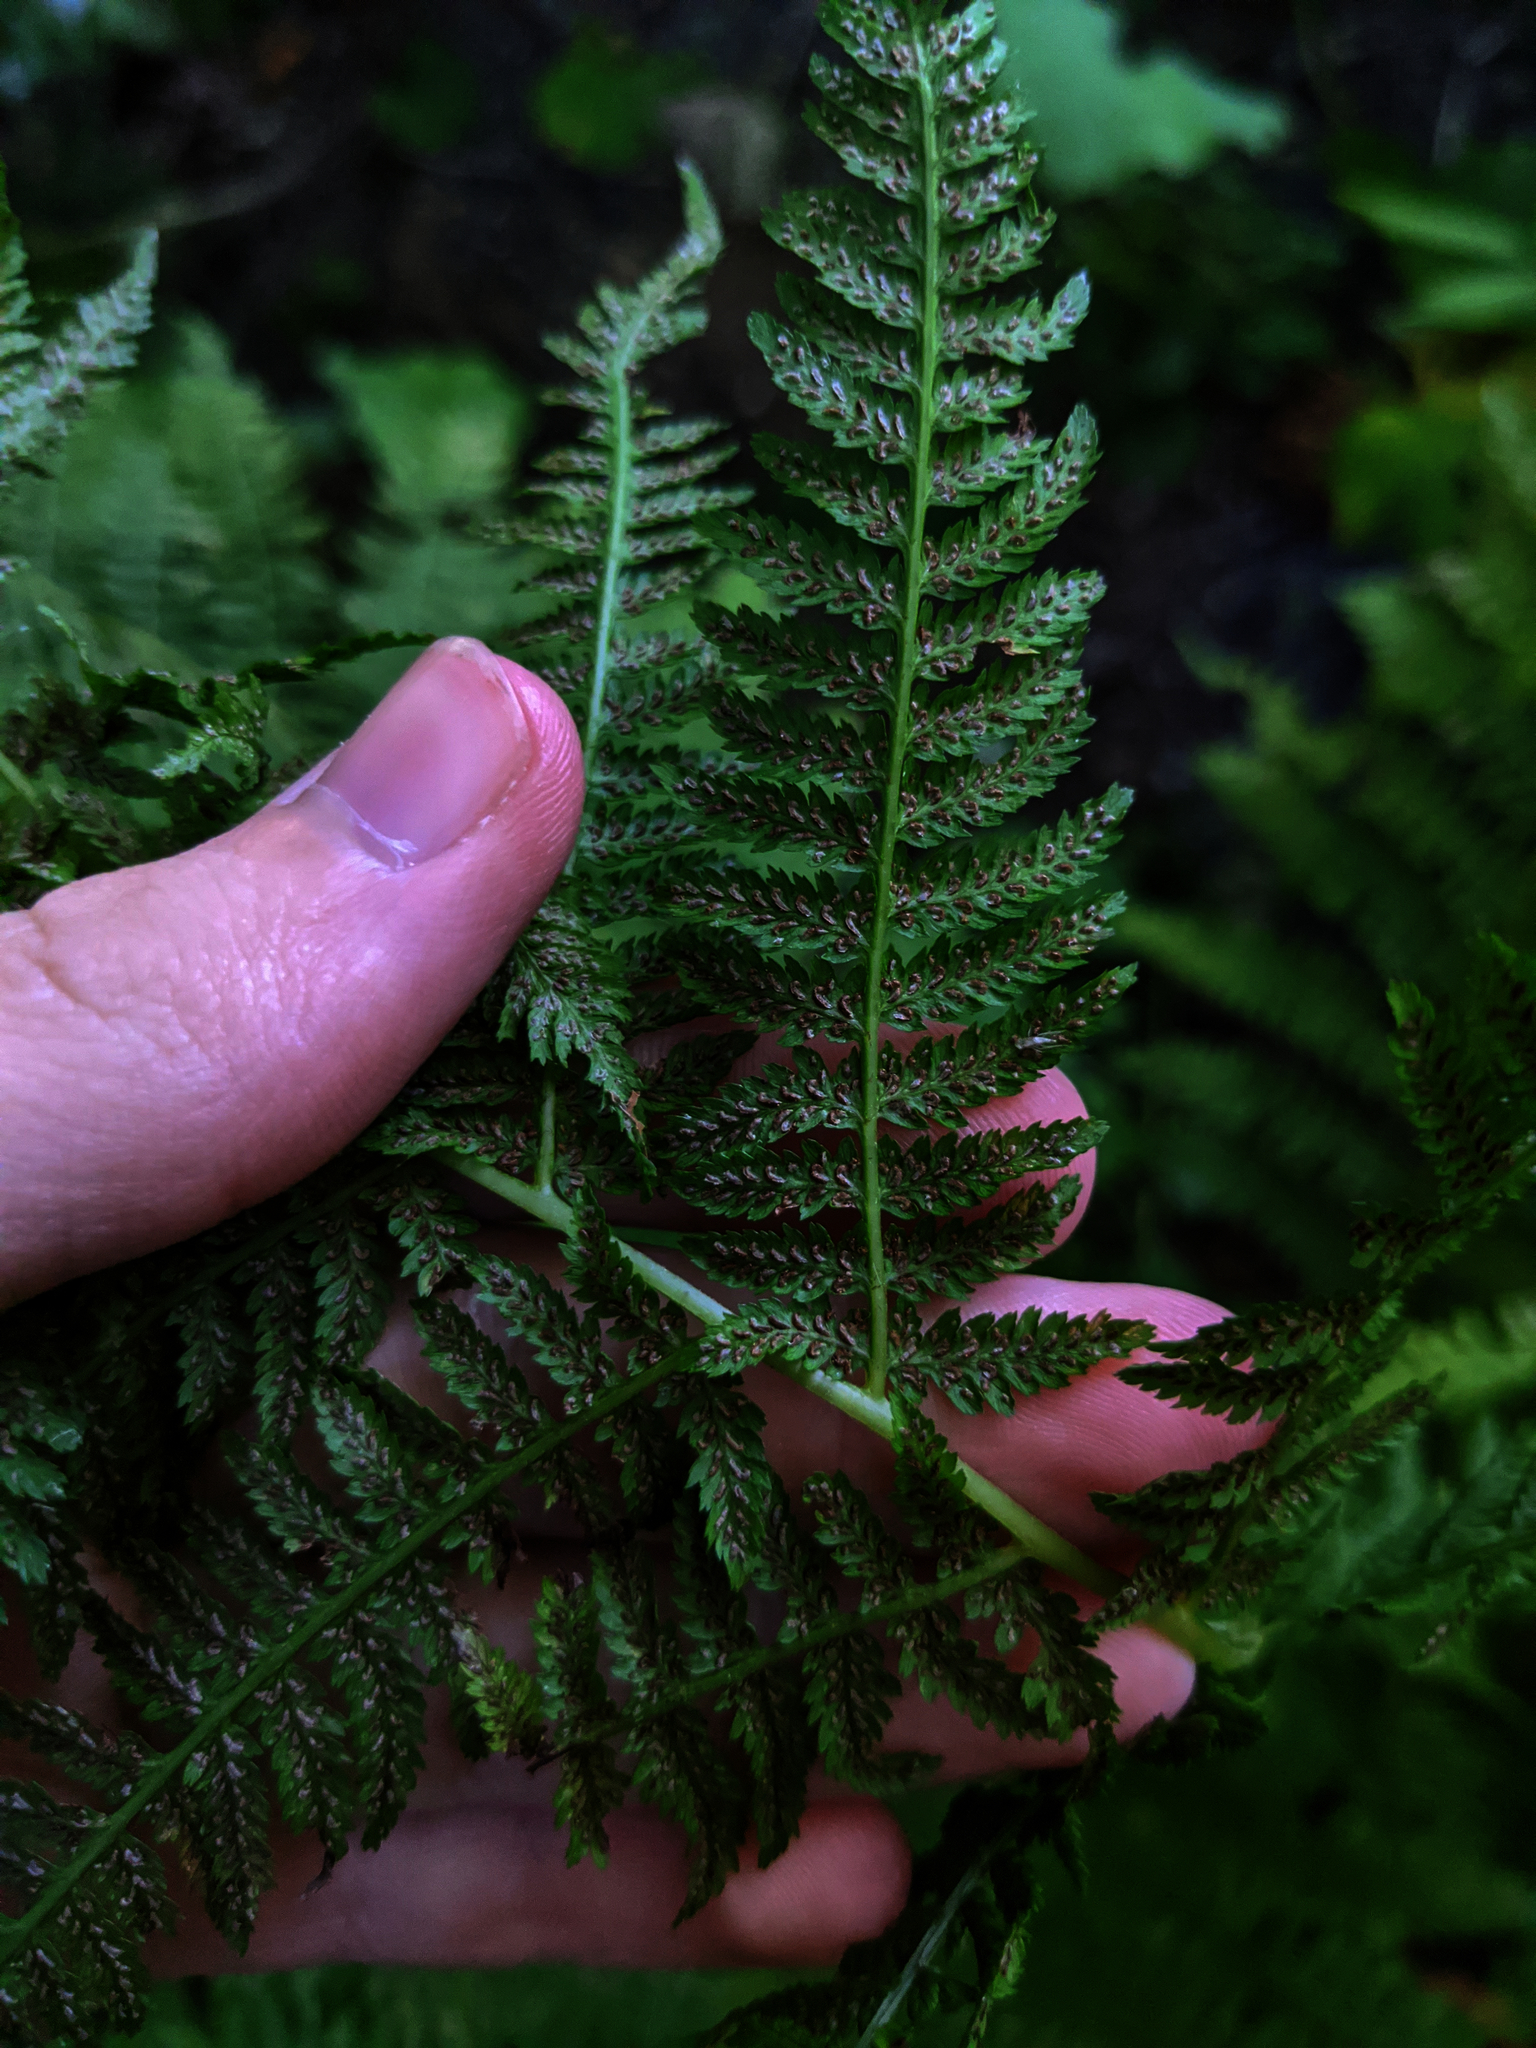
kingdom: Plantae
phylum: Tracheophyta
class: Polypodiopsida
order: Polypodiales
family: Athyriaceae
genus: Athyrium
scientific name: Athyrium angustum
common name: Northern lady fern
